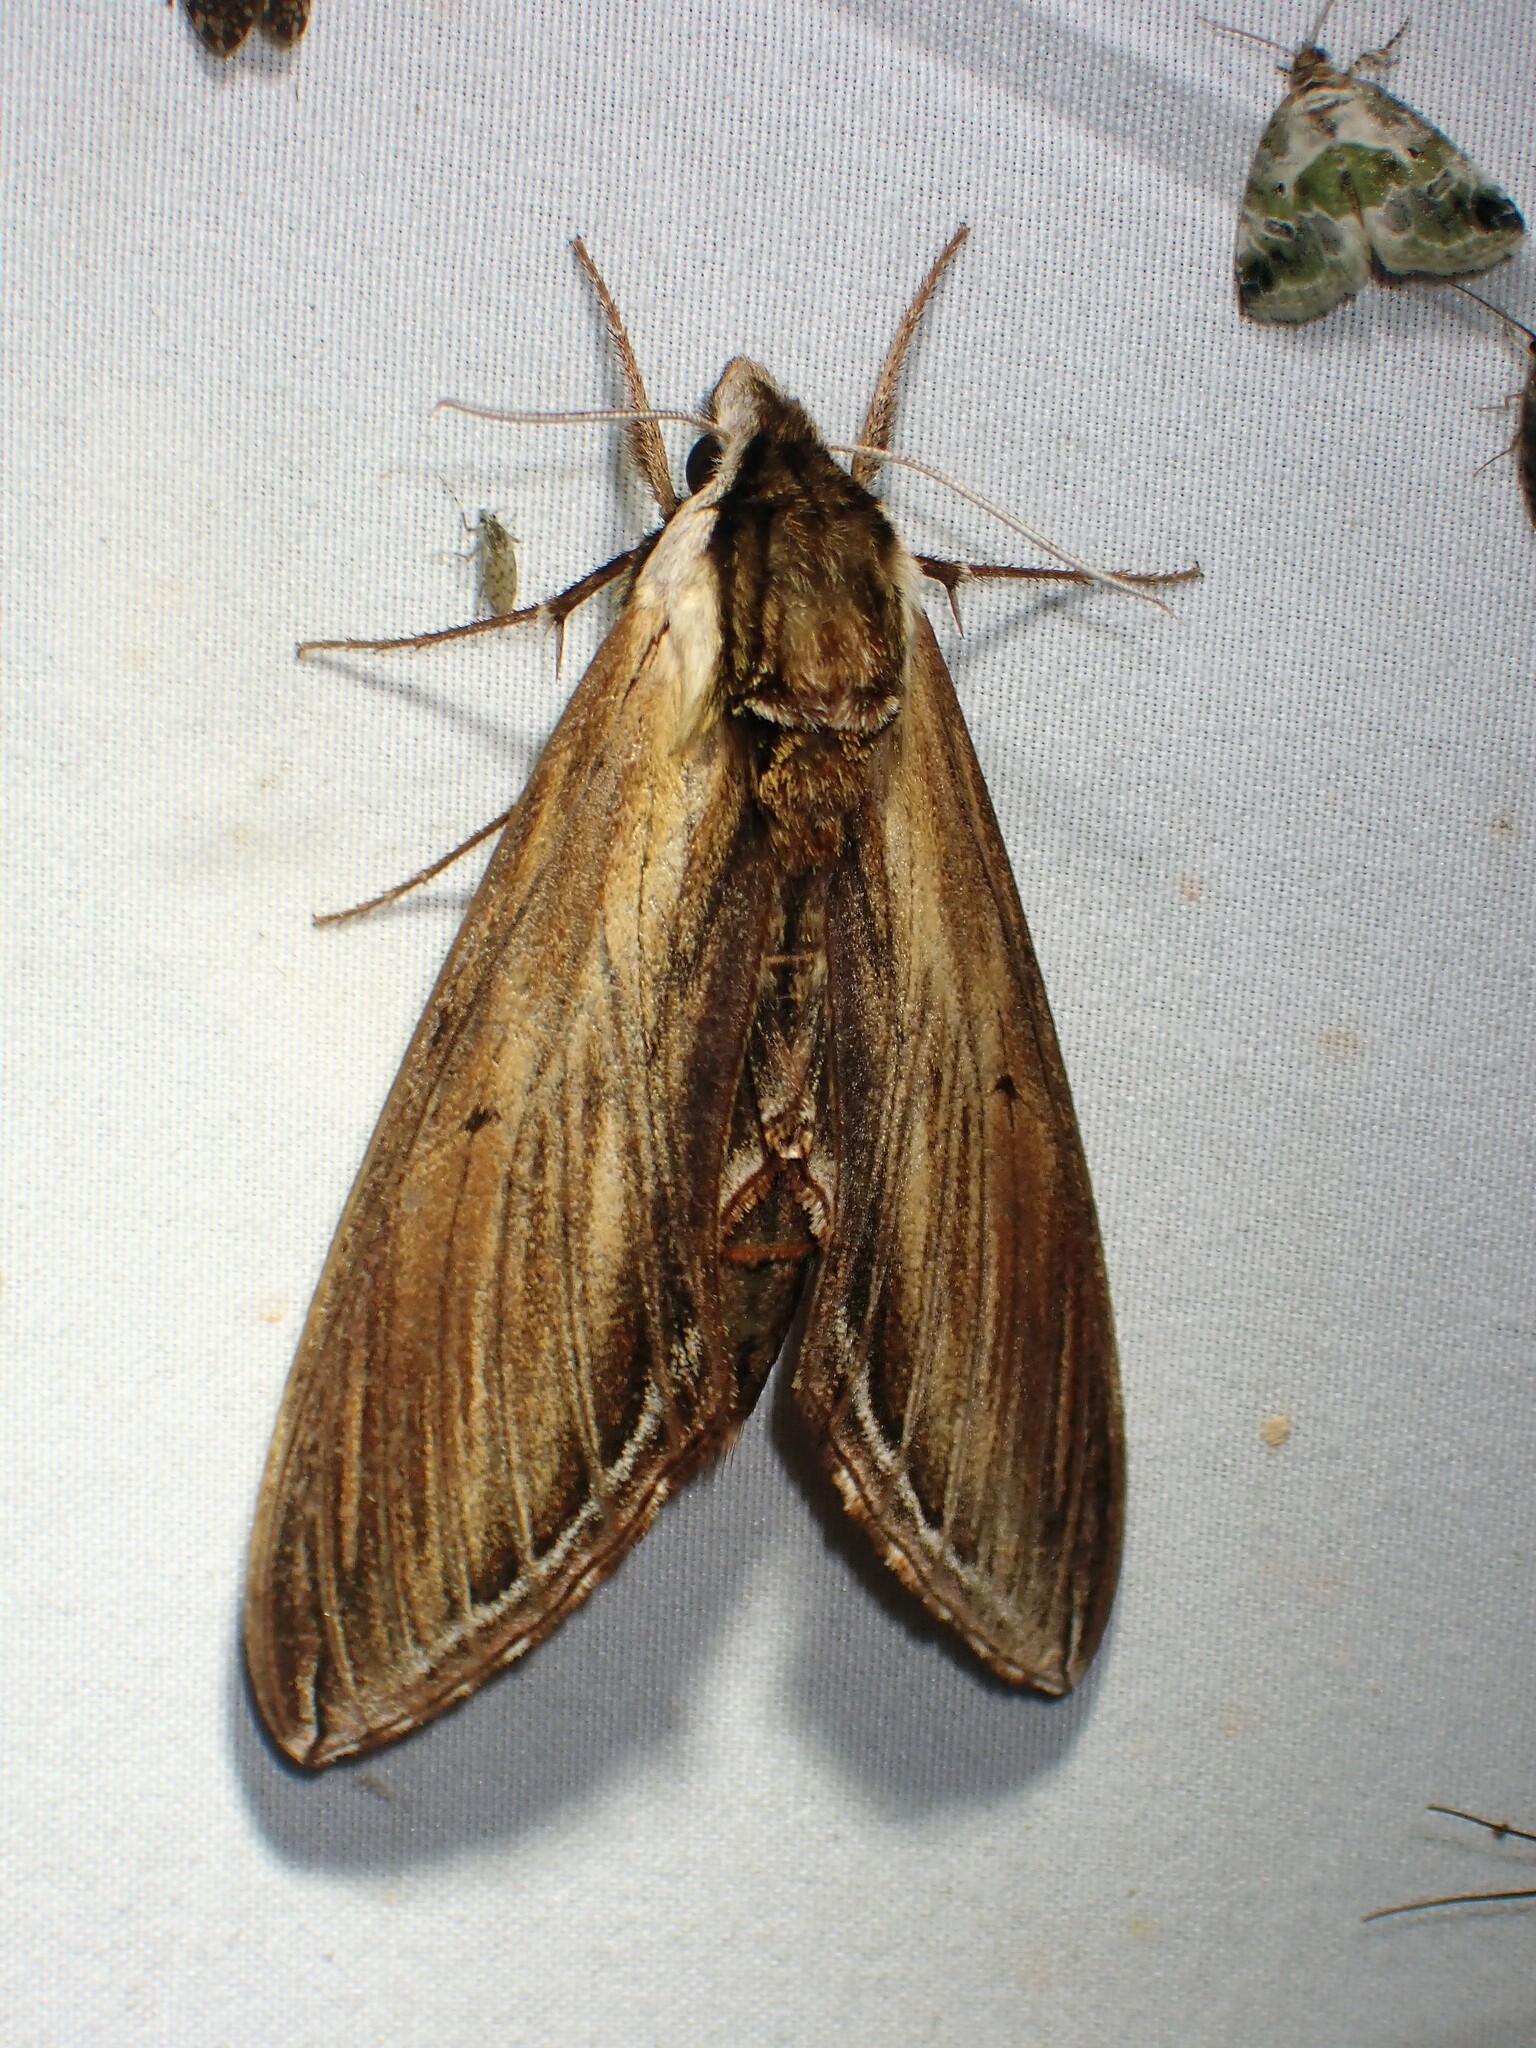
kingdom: Animalia
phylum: Arthropoda
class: Insecta
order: Lepidoptera
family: Sphingidae
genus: Sphinx
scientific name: Sphinx kalmiae
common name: Laurel sphinx
